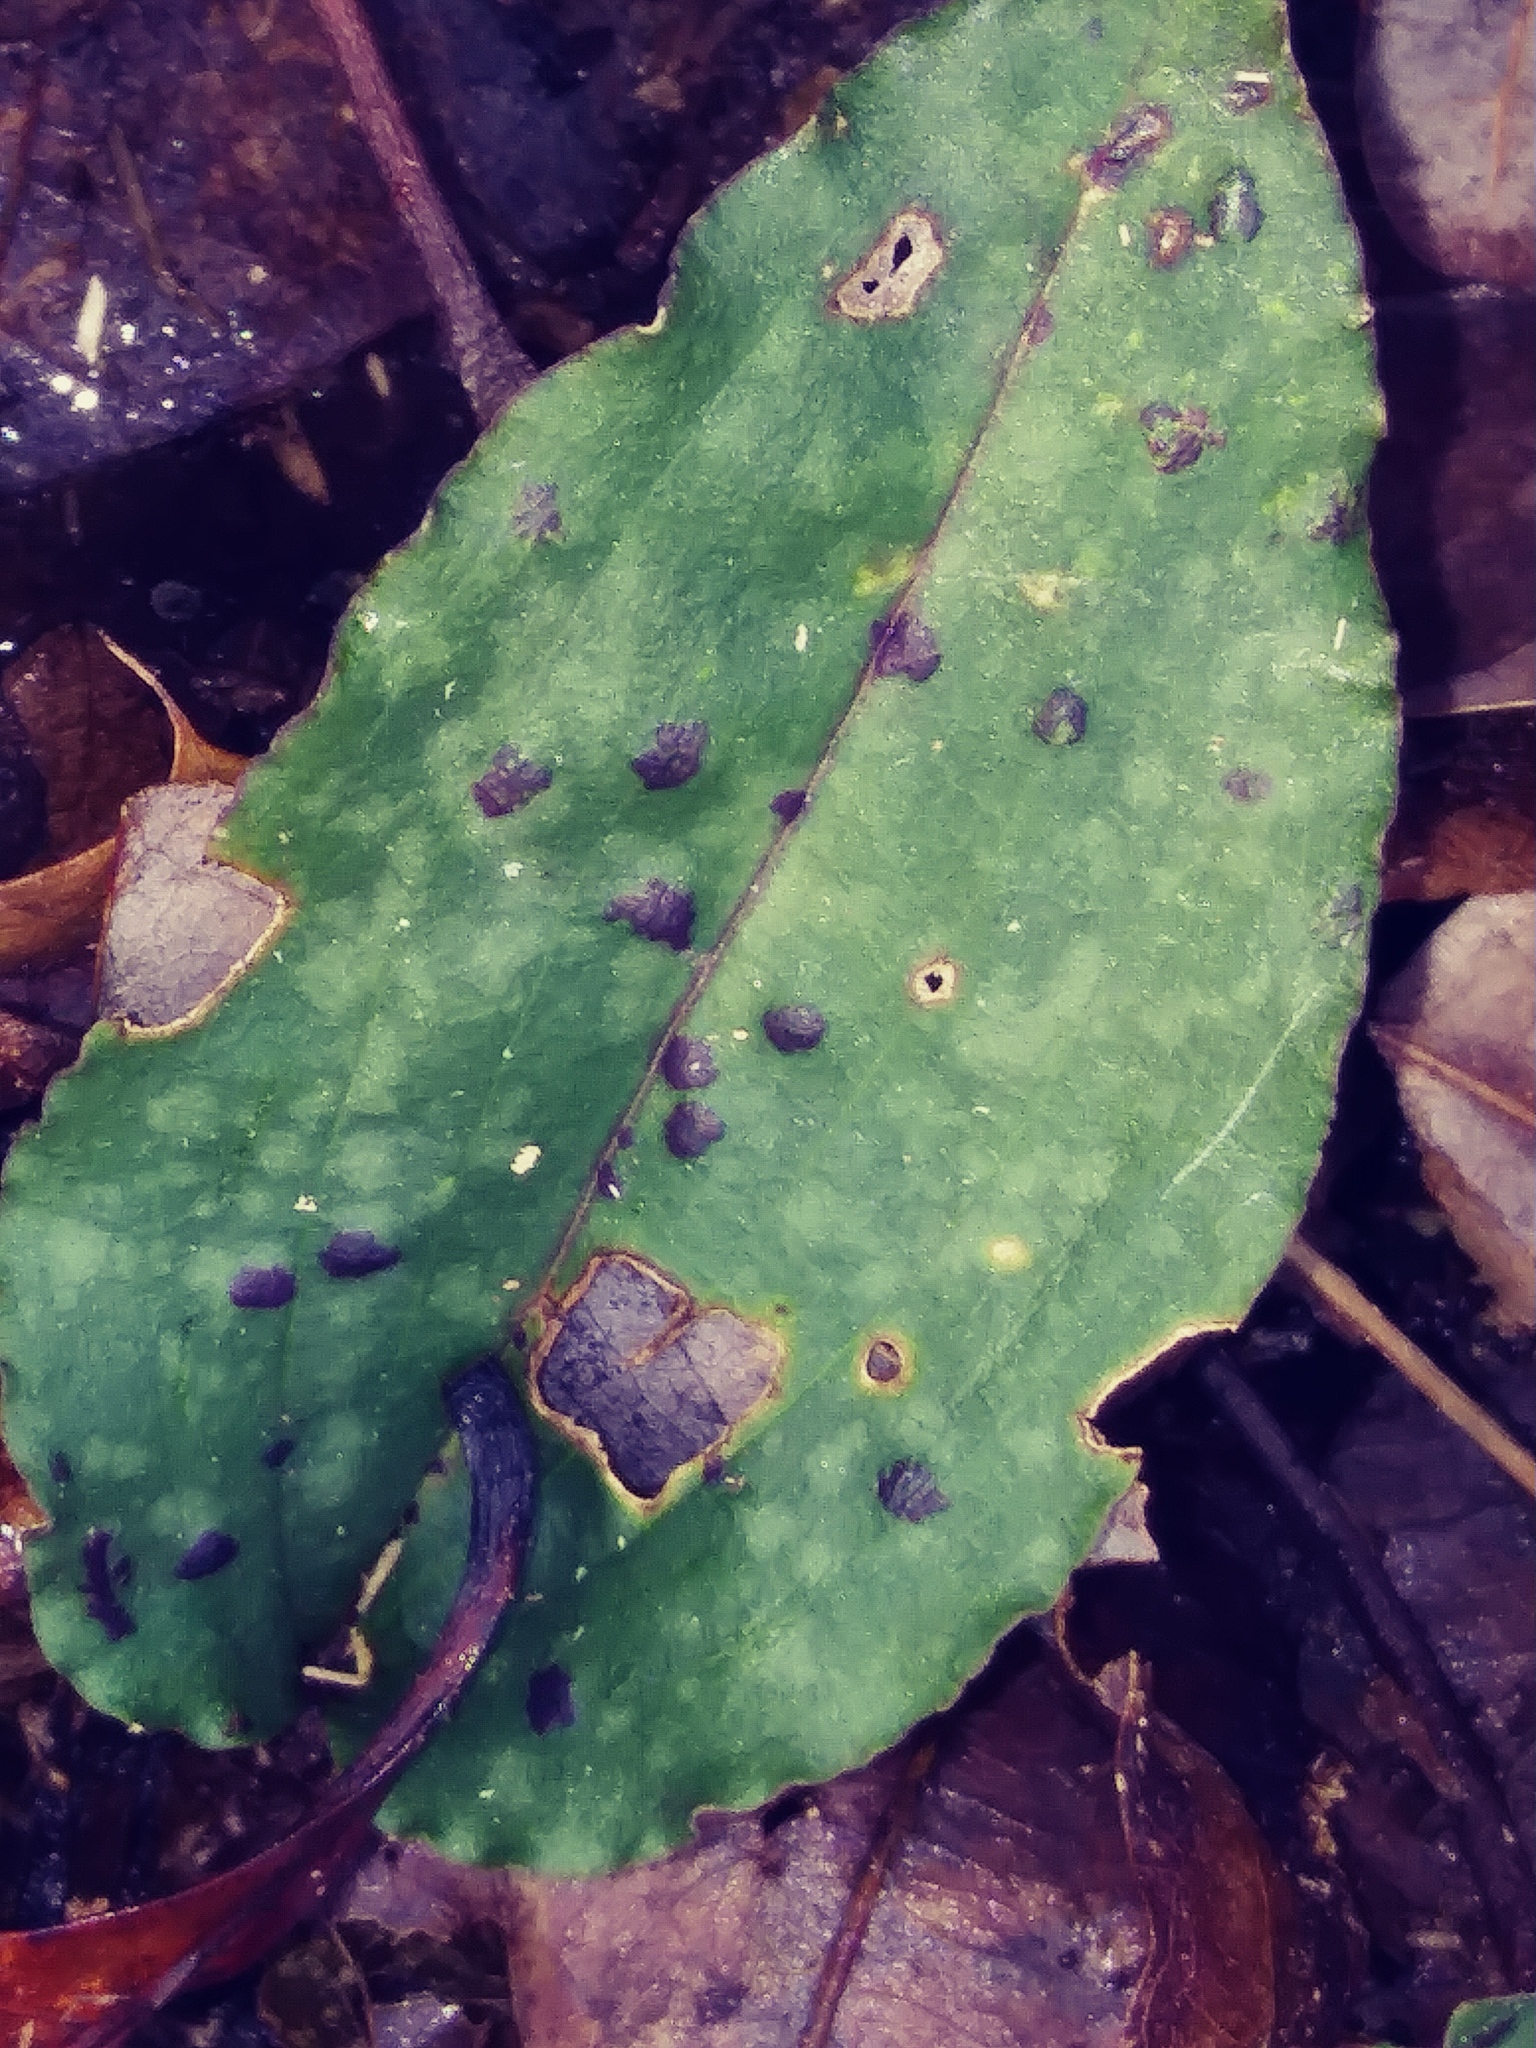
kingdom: Plantae
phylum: Tracheophyta
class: Liliopsida
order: Asparagales
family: Orchidaceae
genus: Tipularia
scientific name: Tipularia discolor
